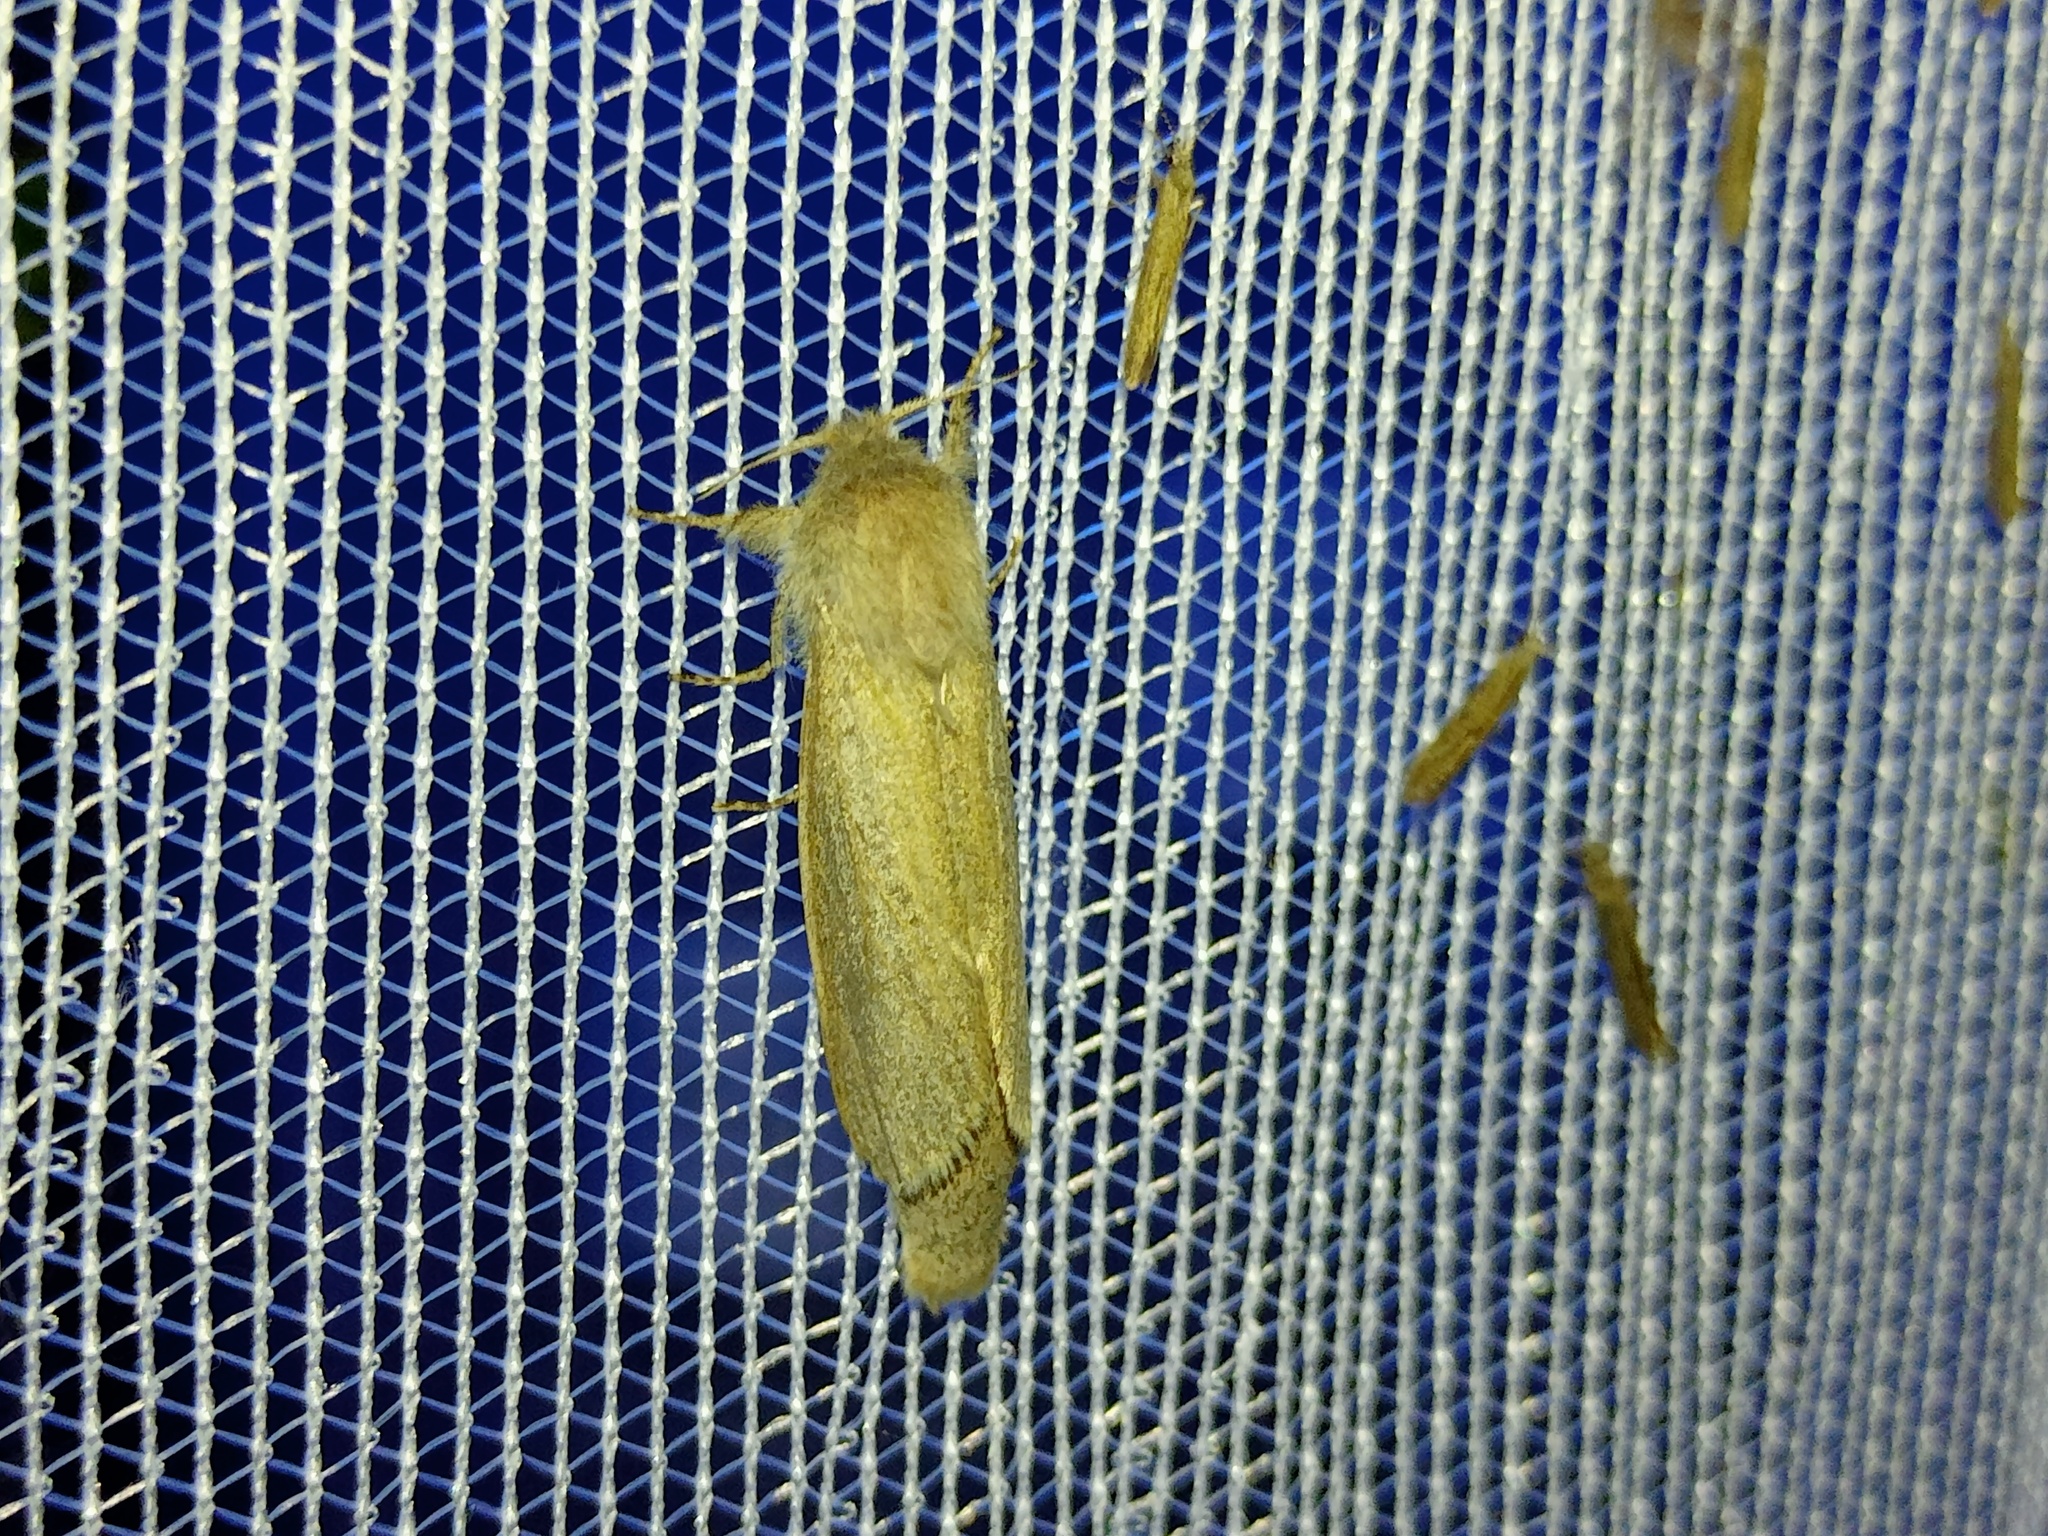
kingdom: Animalia
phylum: Arthropoda
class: Insecta
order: Lepidoptera
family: Cossidae
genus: Phragmataecia
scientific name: Phragmataecia castaneae
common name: Reed leopard
